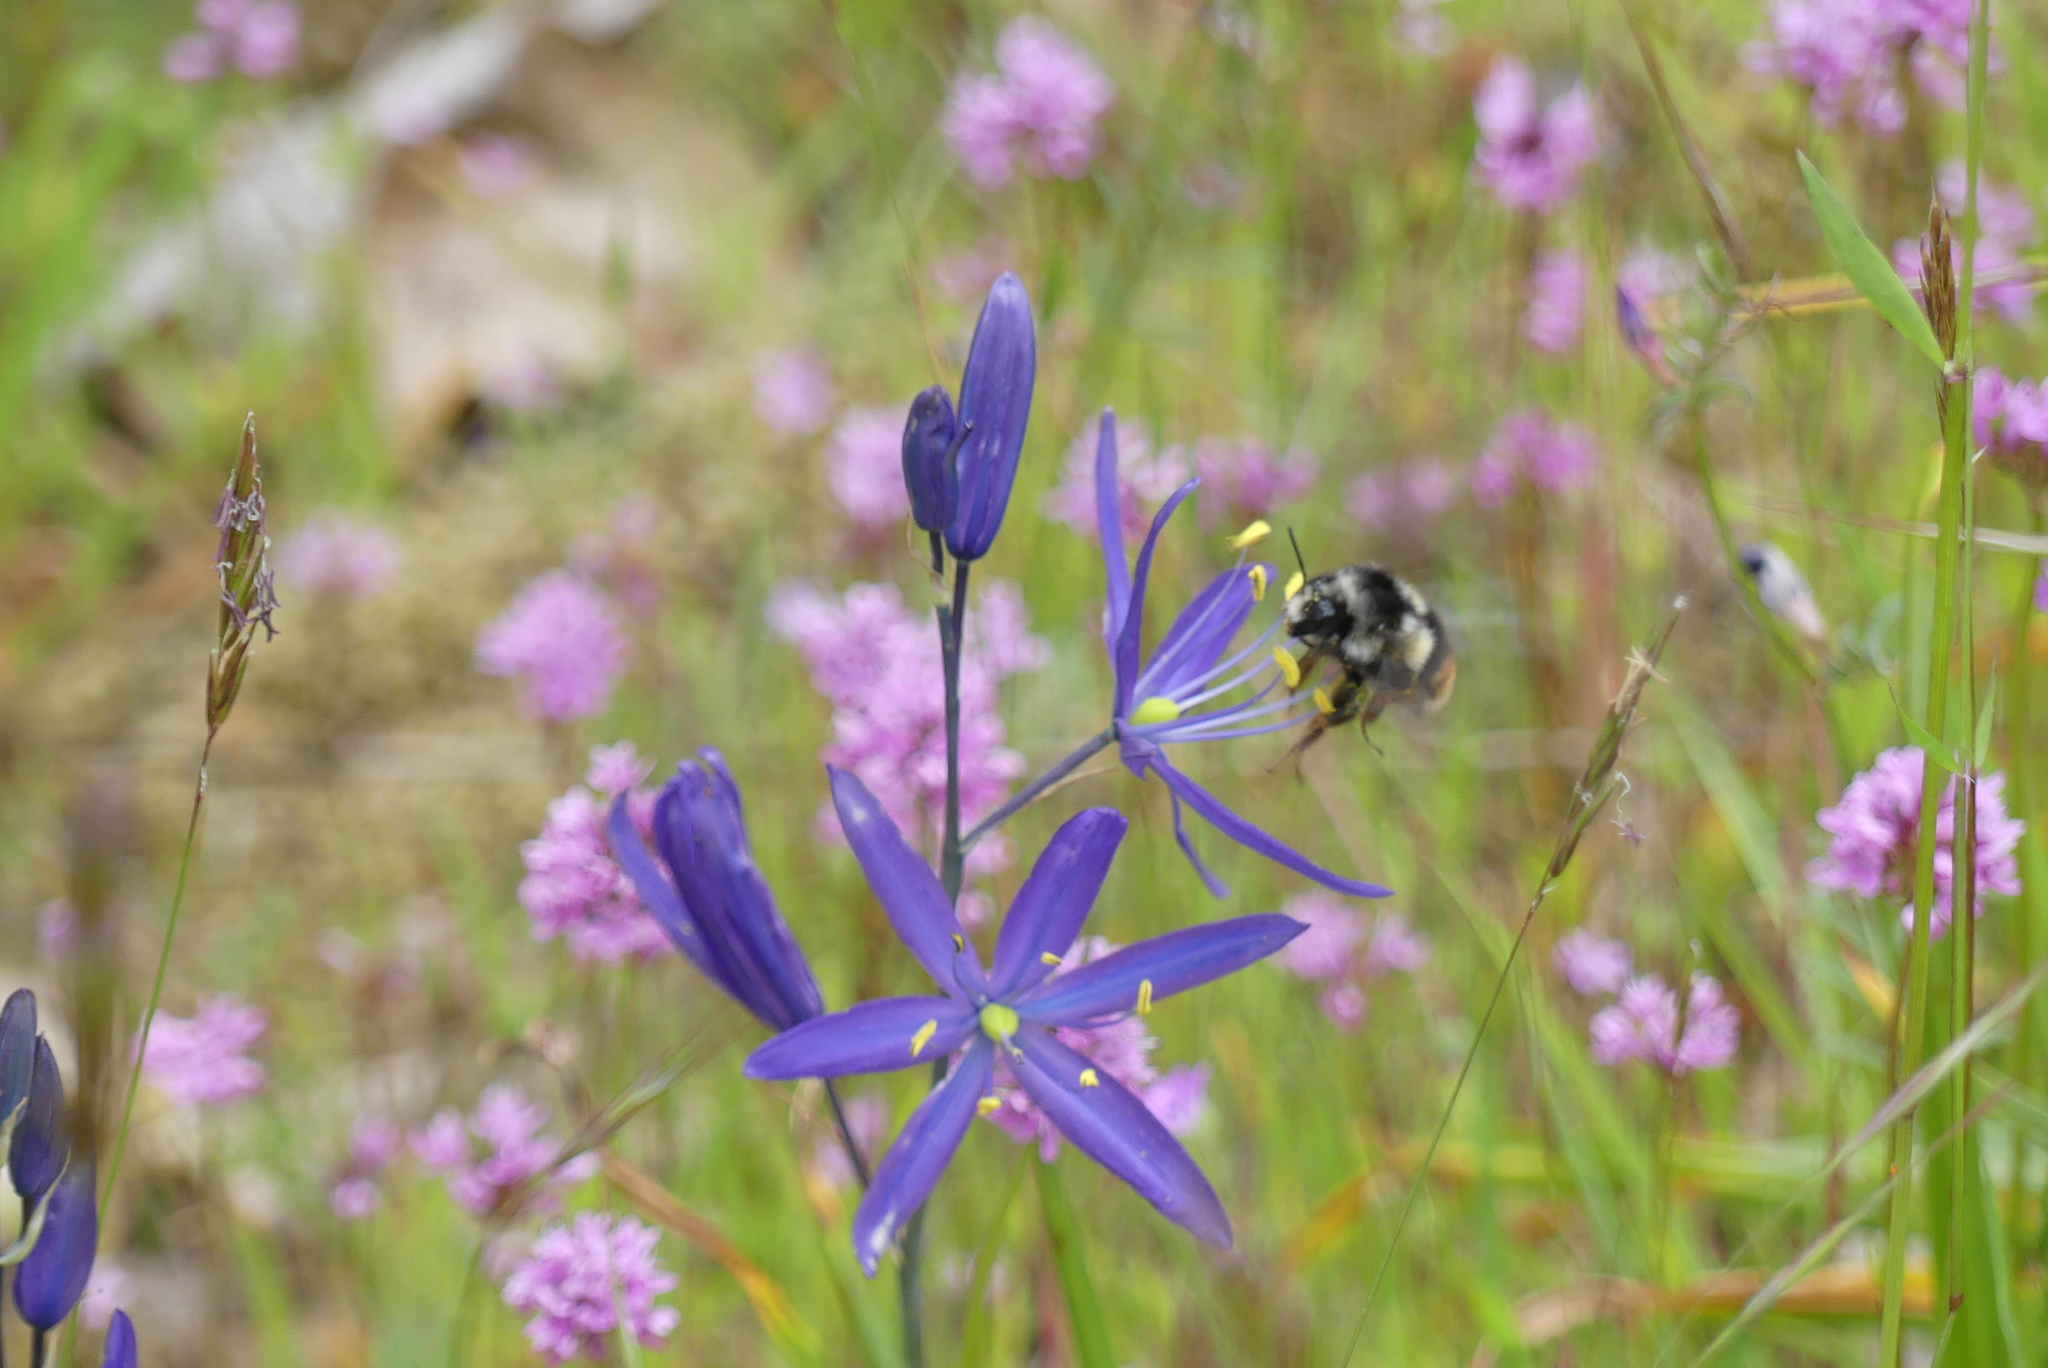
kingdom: Animalia
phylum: Arthropoda
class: Insecta
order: Hymenoptera
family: Apidae
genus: Bombus
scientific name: Bombus vancouverensis
